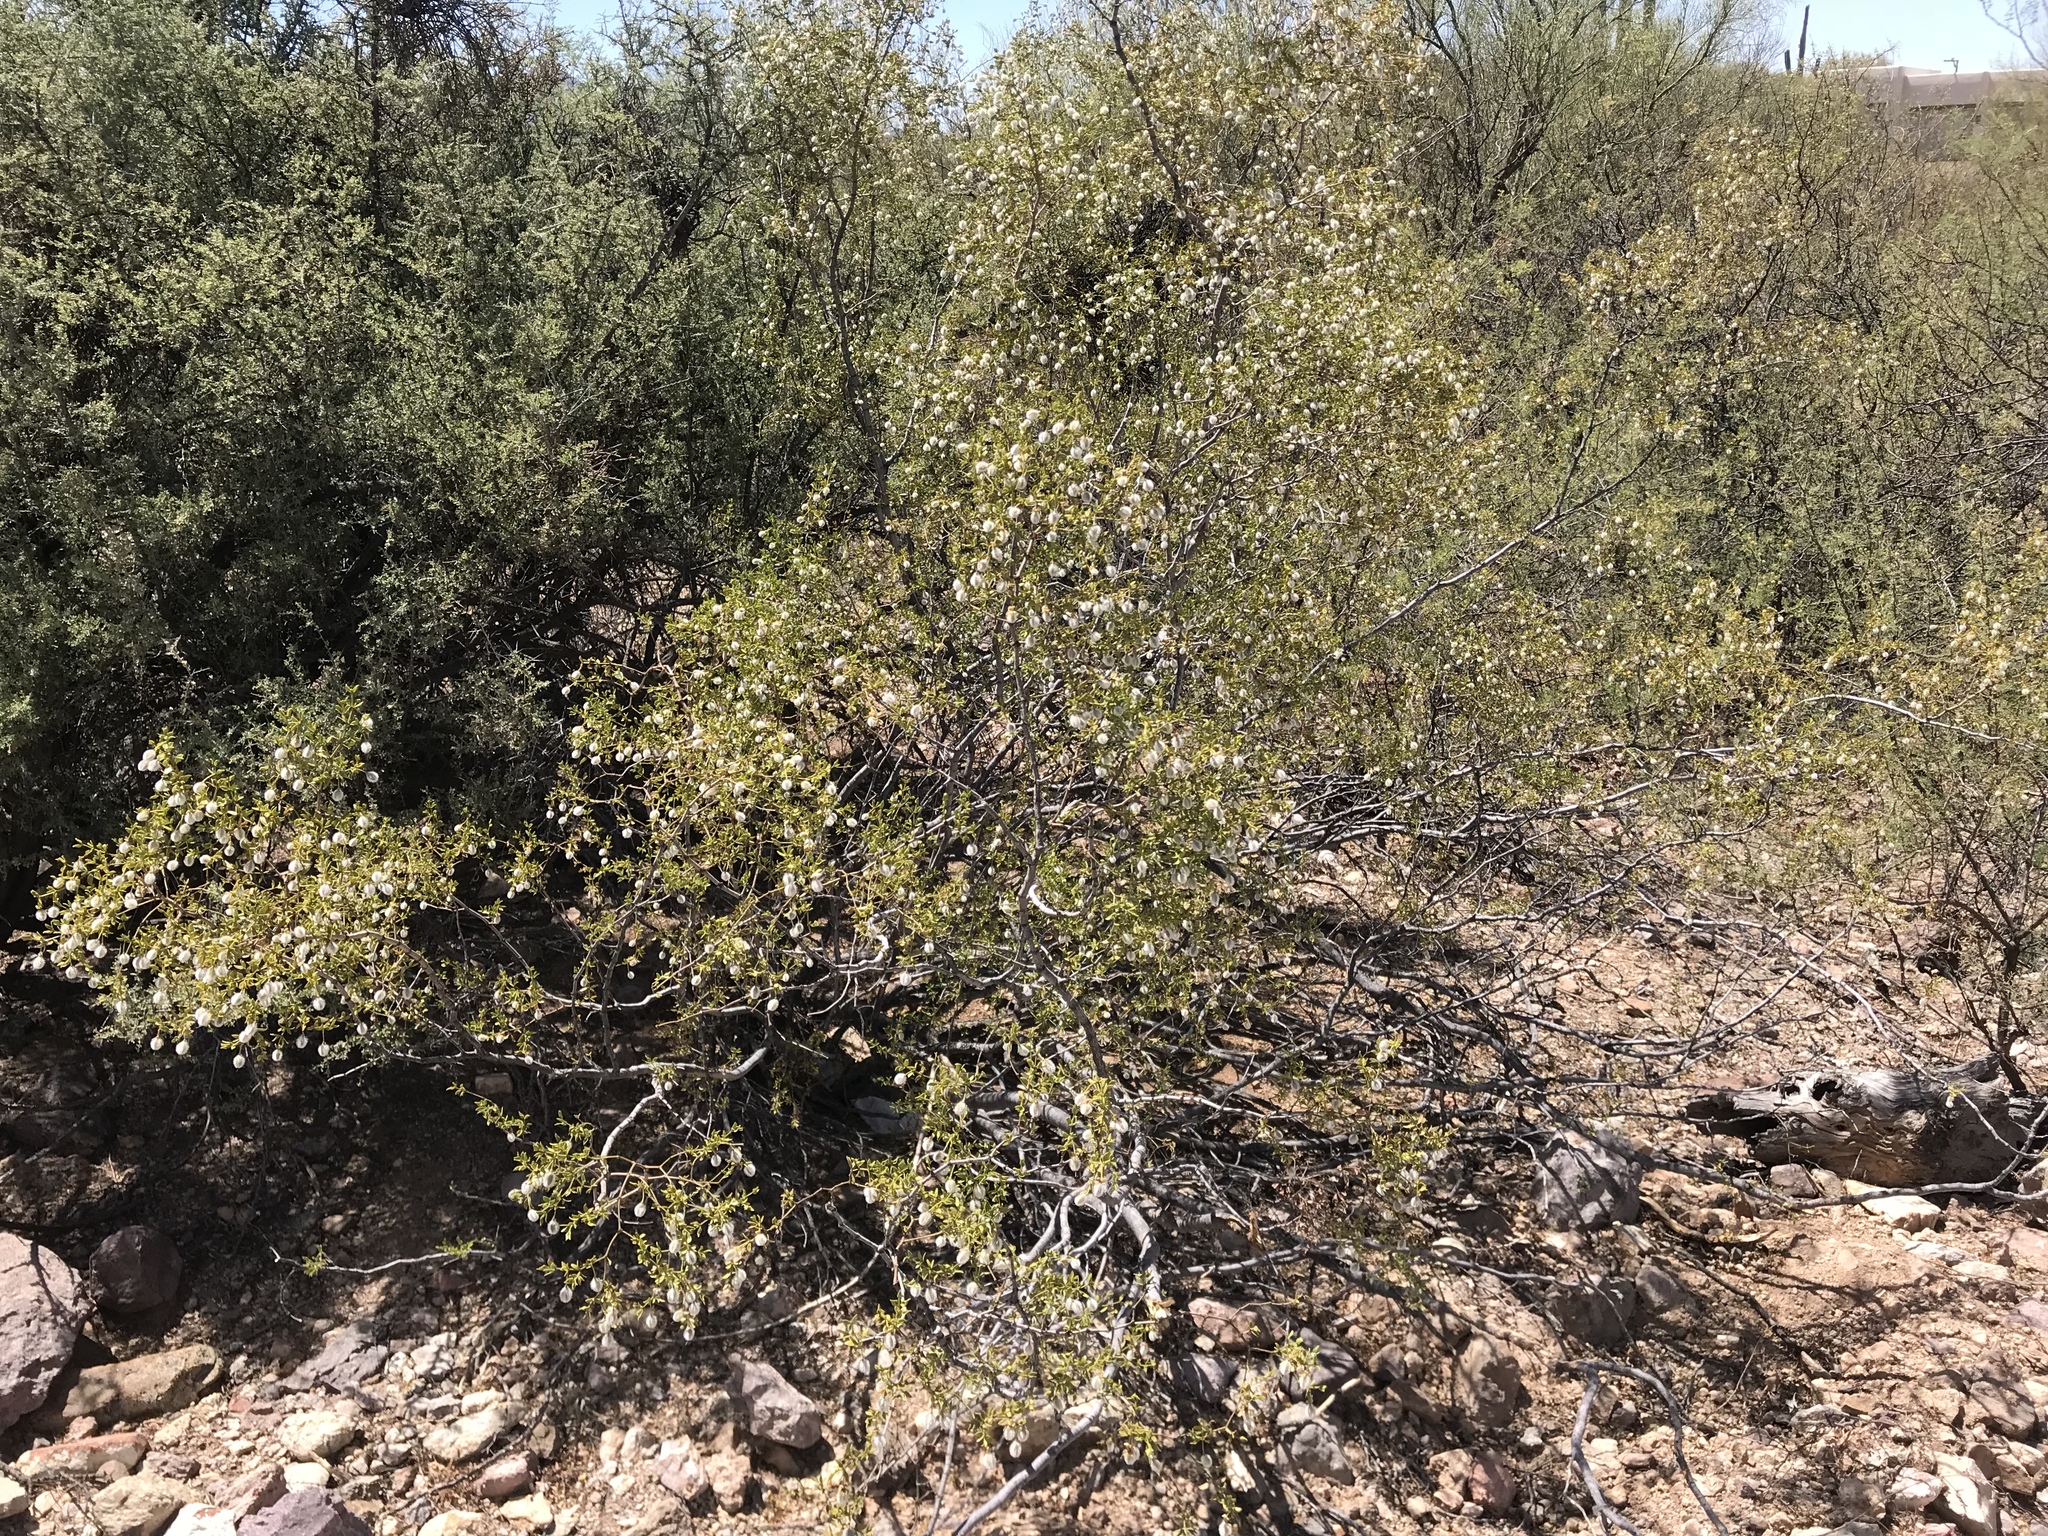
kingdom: Plantae
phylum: Tracheophyta
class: Magnoliopsida
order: Zygophyllales
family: Zygophyllaceae
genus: Larrea
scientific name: Larrea tridentata
